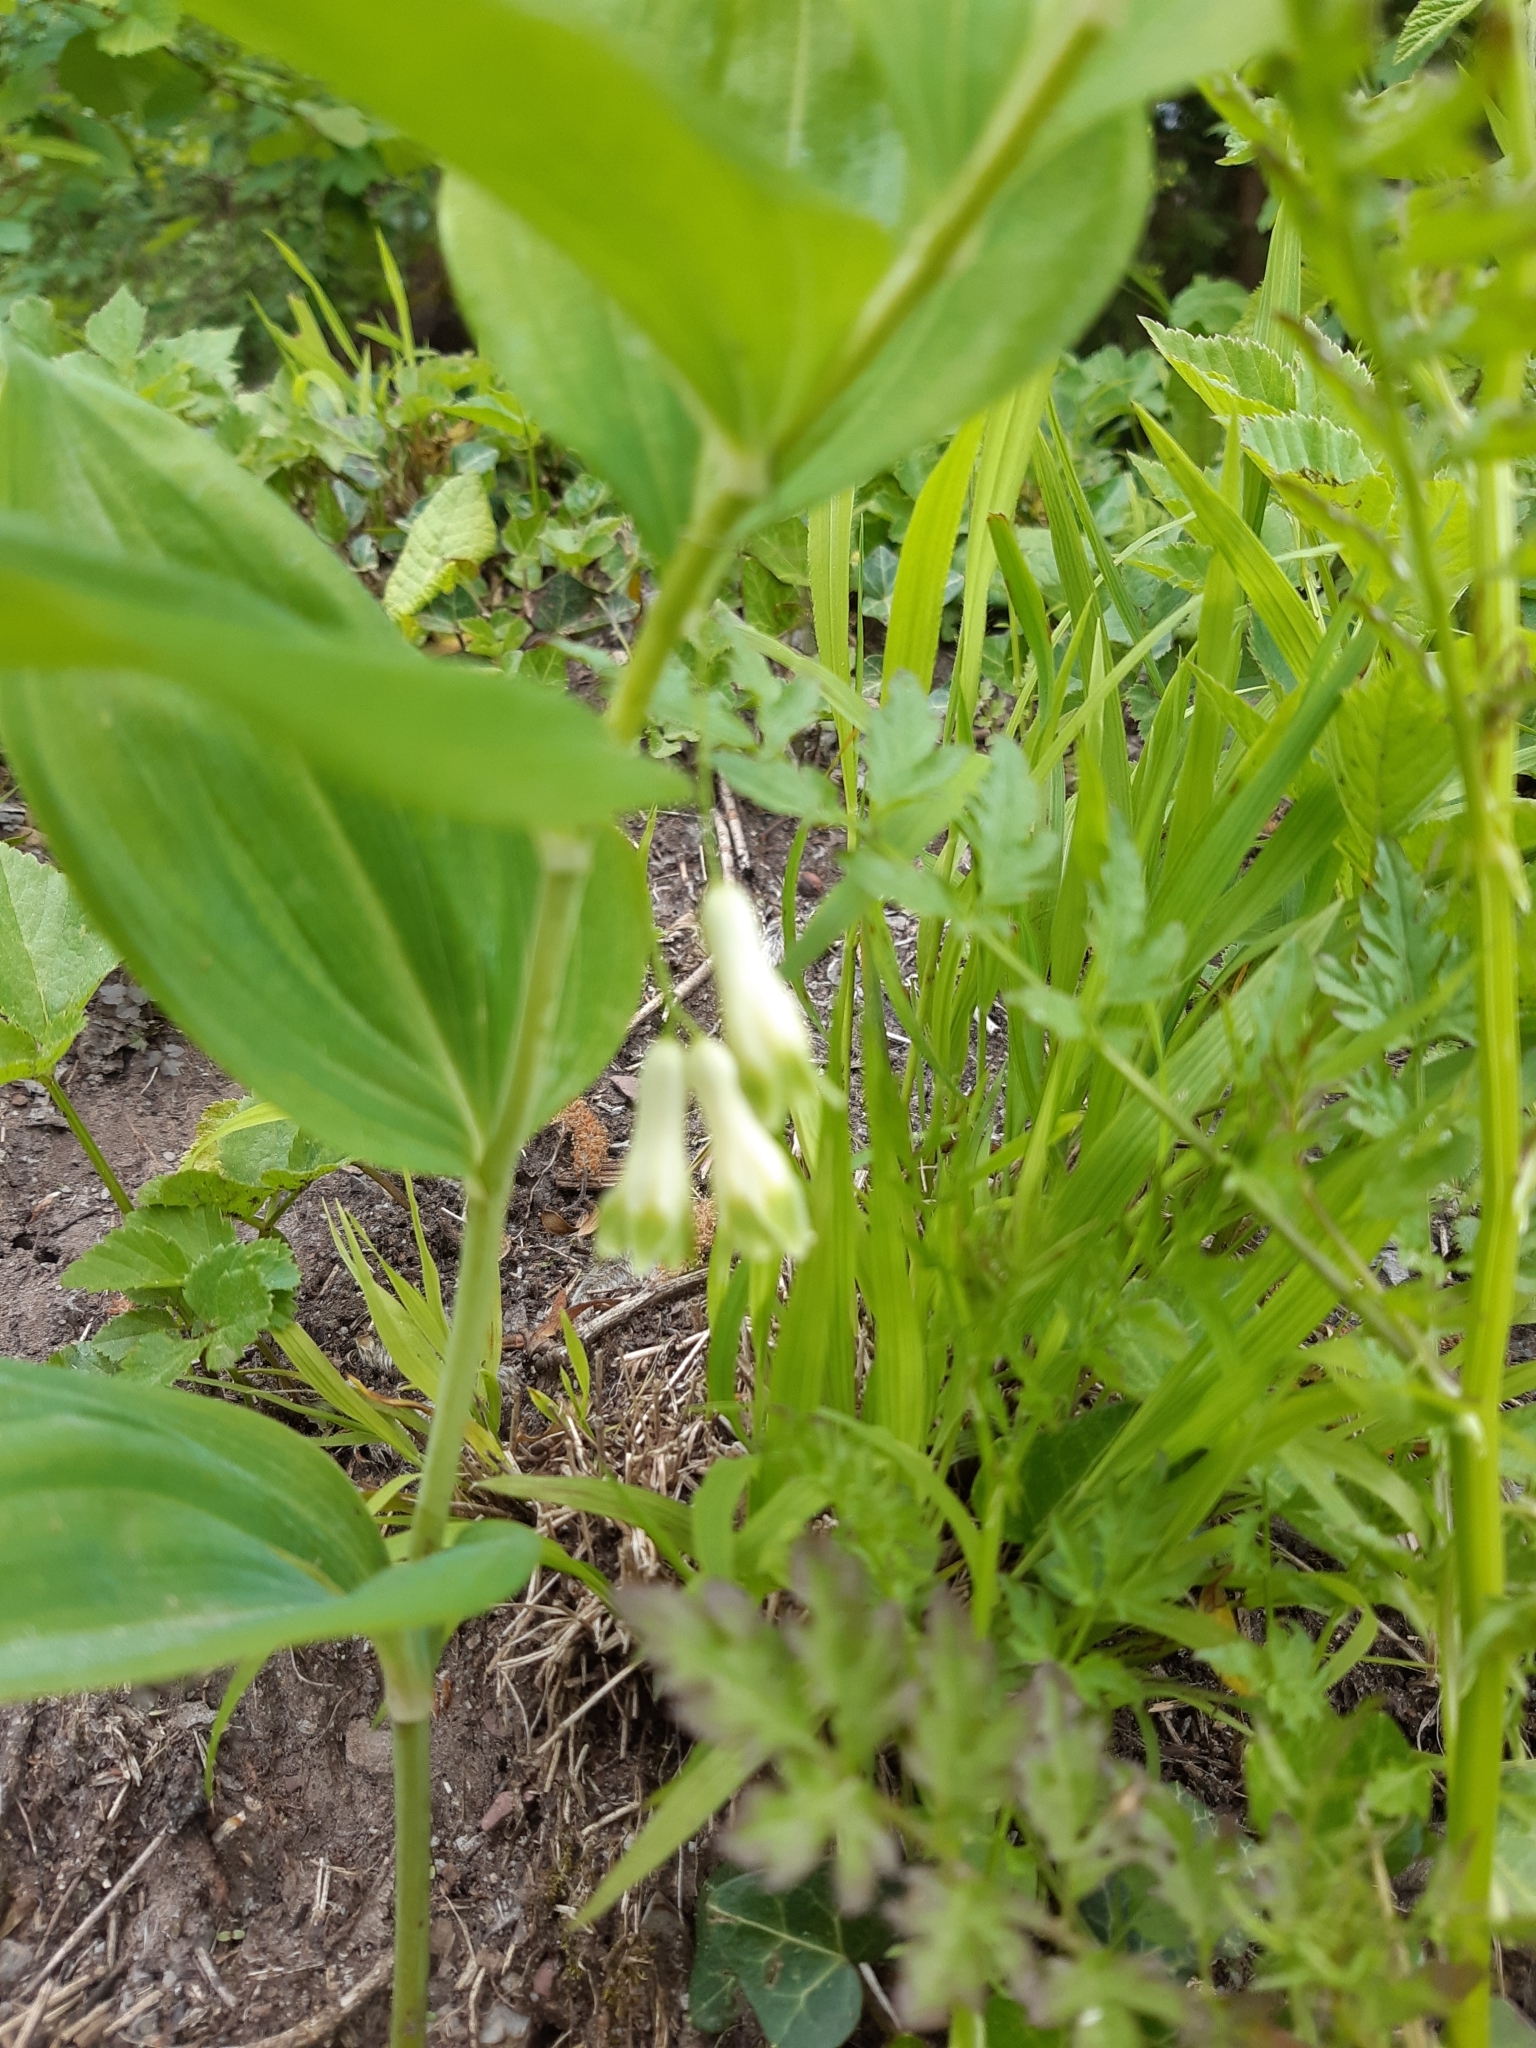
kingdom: Plantae
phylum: Tracheophyta
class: Liliopsida
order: Asparagales
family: Asparagaceae
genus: Polygonatum
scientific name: Polygonatum multiflorum
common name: Solomon's-seal
